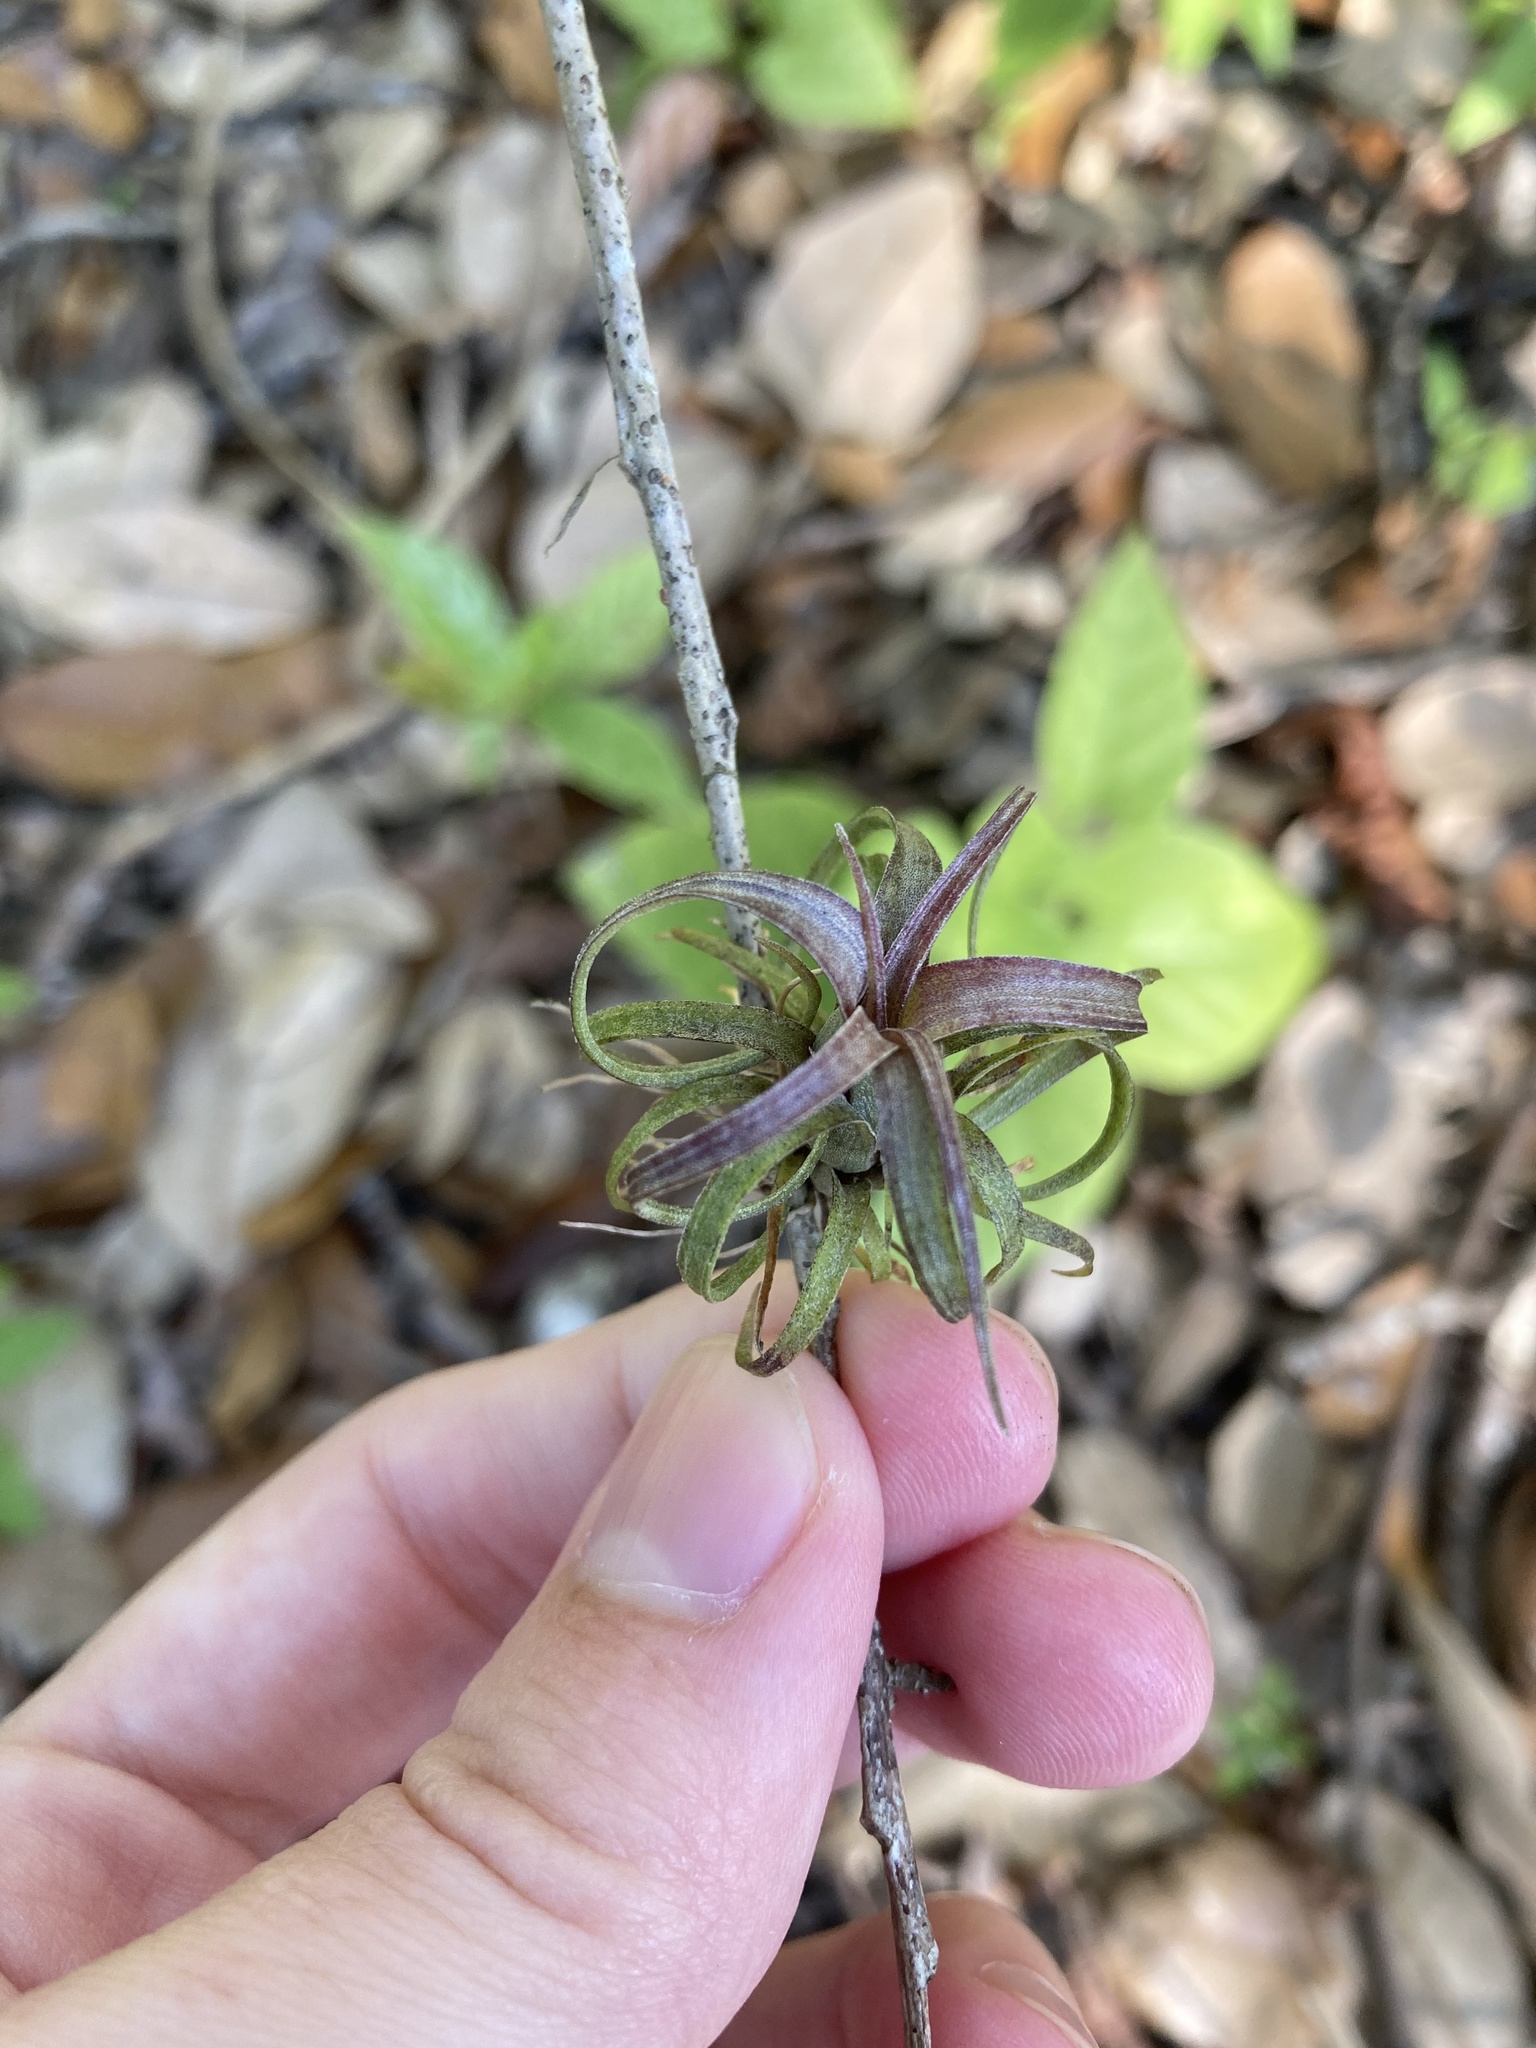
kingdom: Plantae
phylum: Tracheophyta
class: Liliopsida
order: Poales
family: Bromeliaceae
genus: Tillandsia
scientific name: Tillandsia balbisiana
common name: Northern needleleaf
